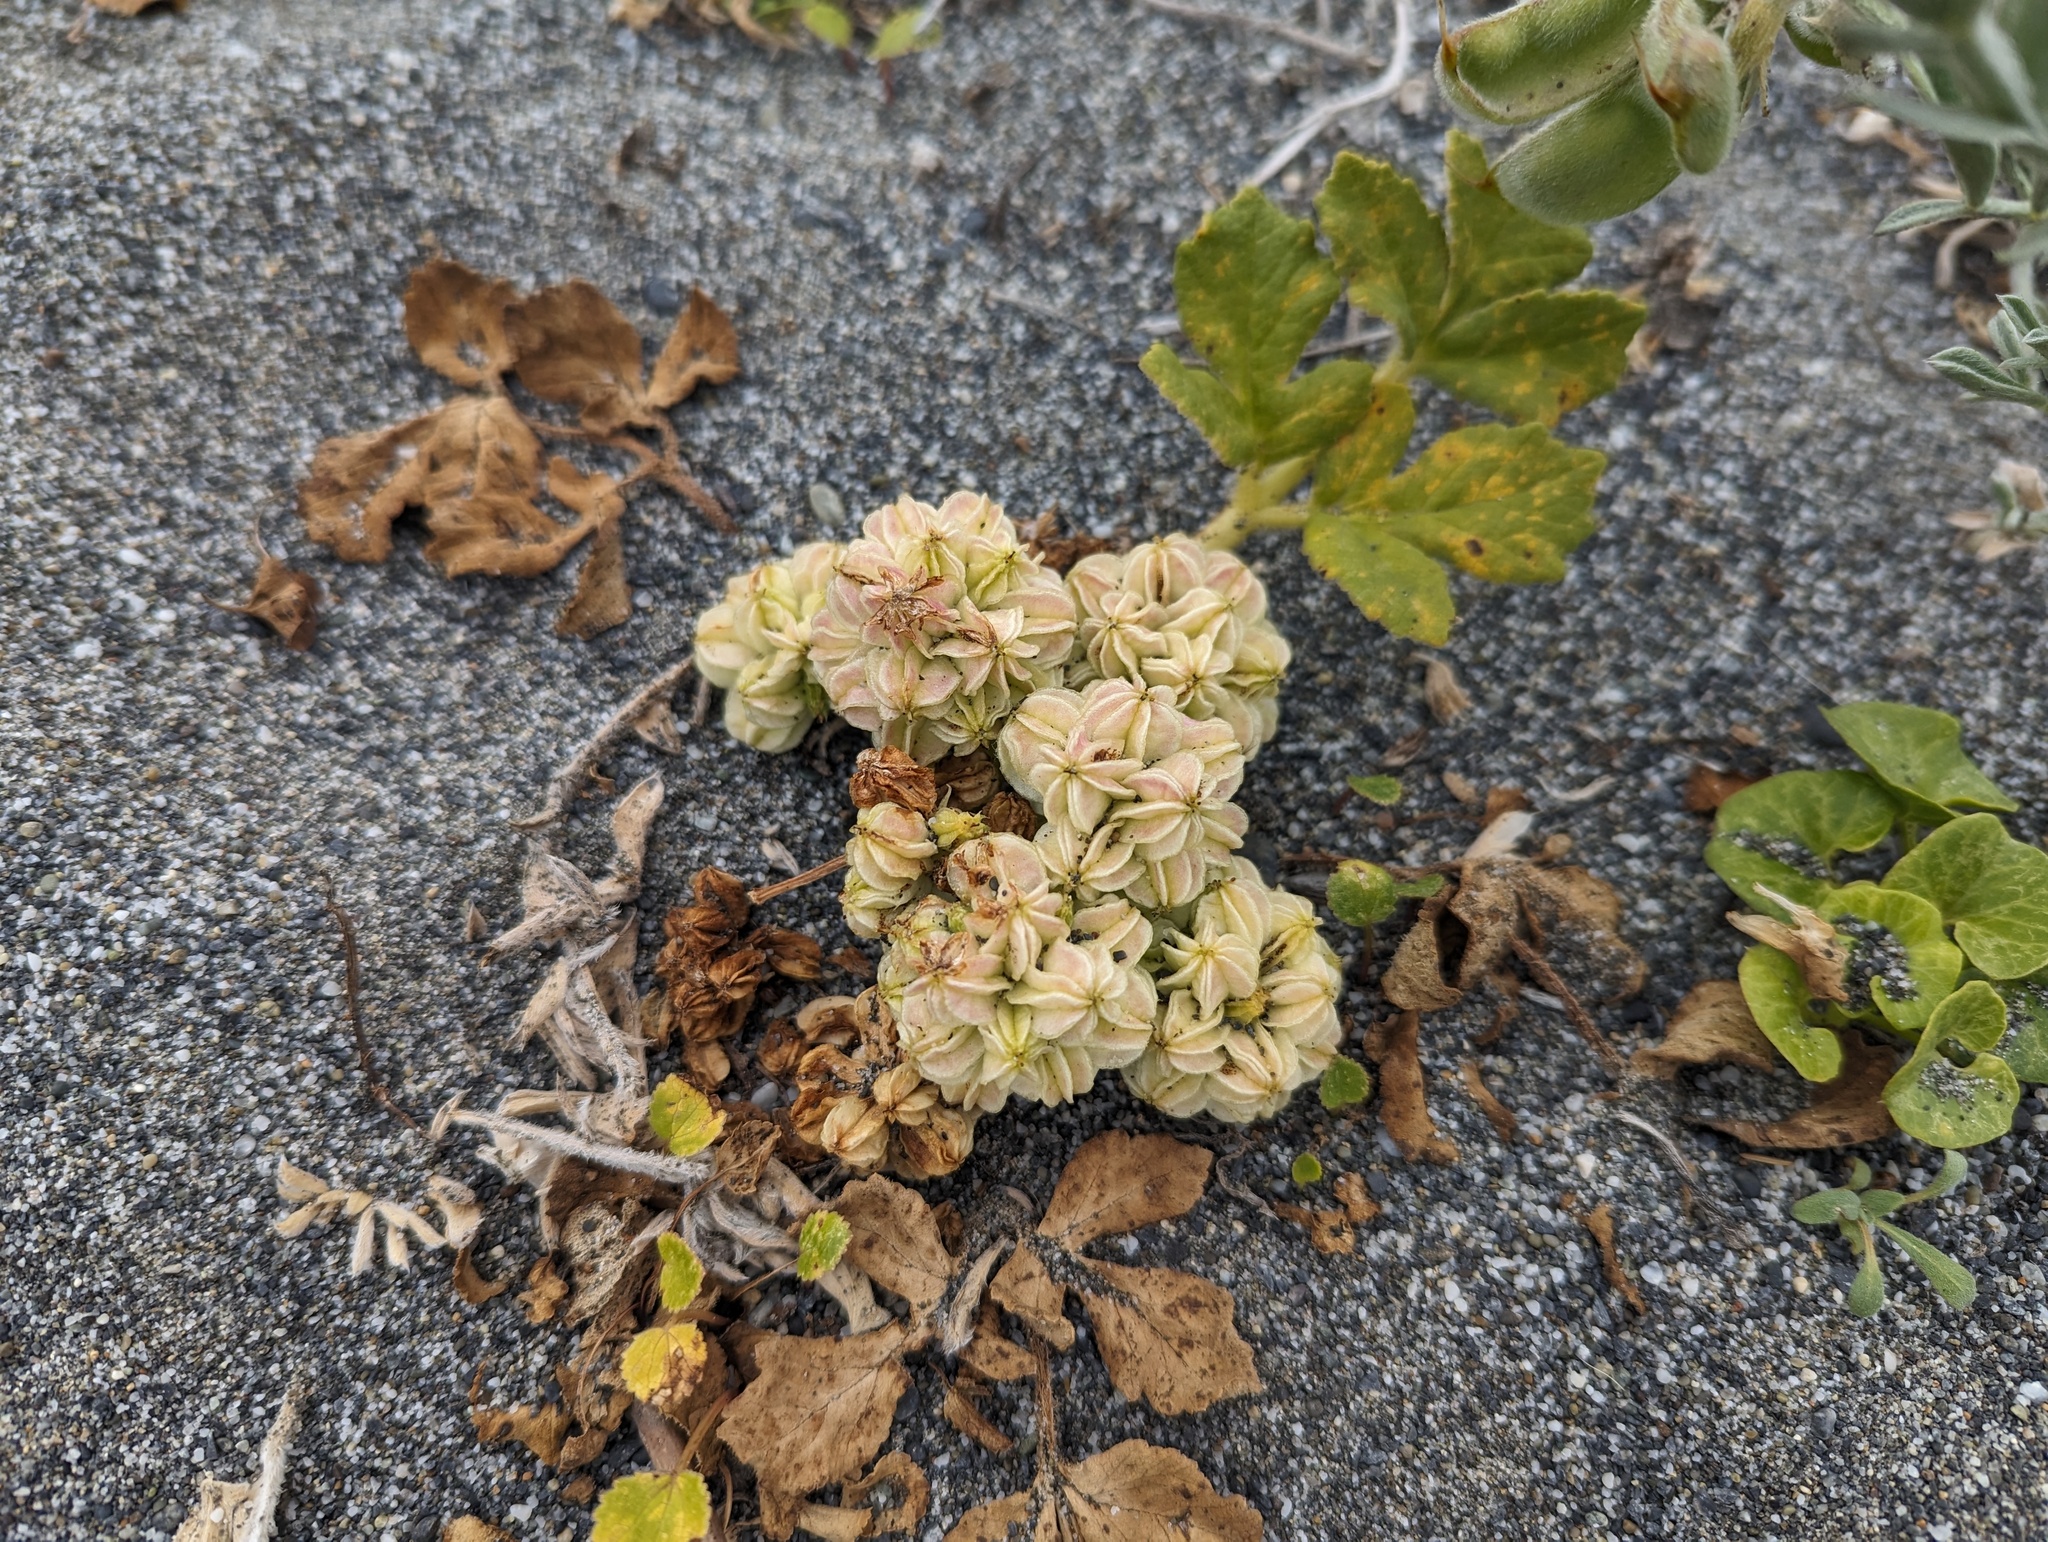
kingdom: Plantae
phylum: Tracheophyta
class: Magnoliopsida
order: Apiales
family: Apiaceae
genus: Angelica
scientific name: Angelica leiocarpa
